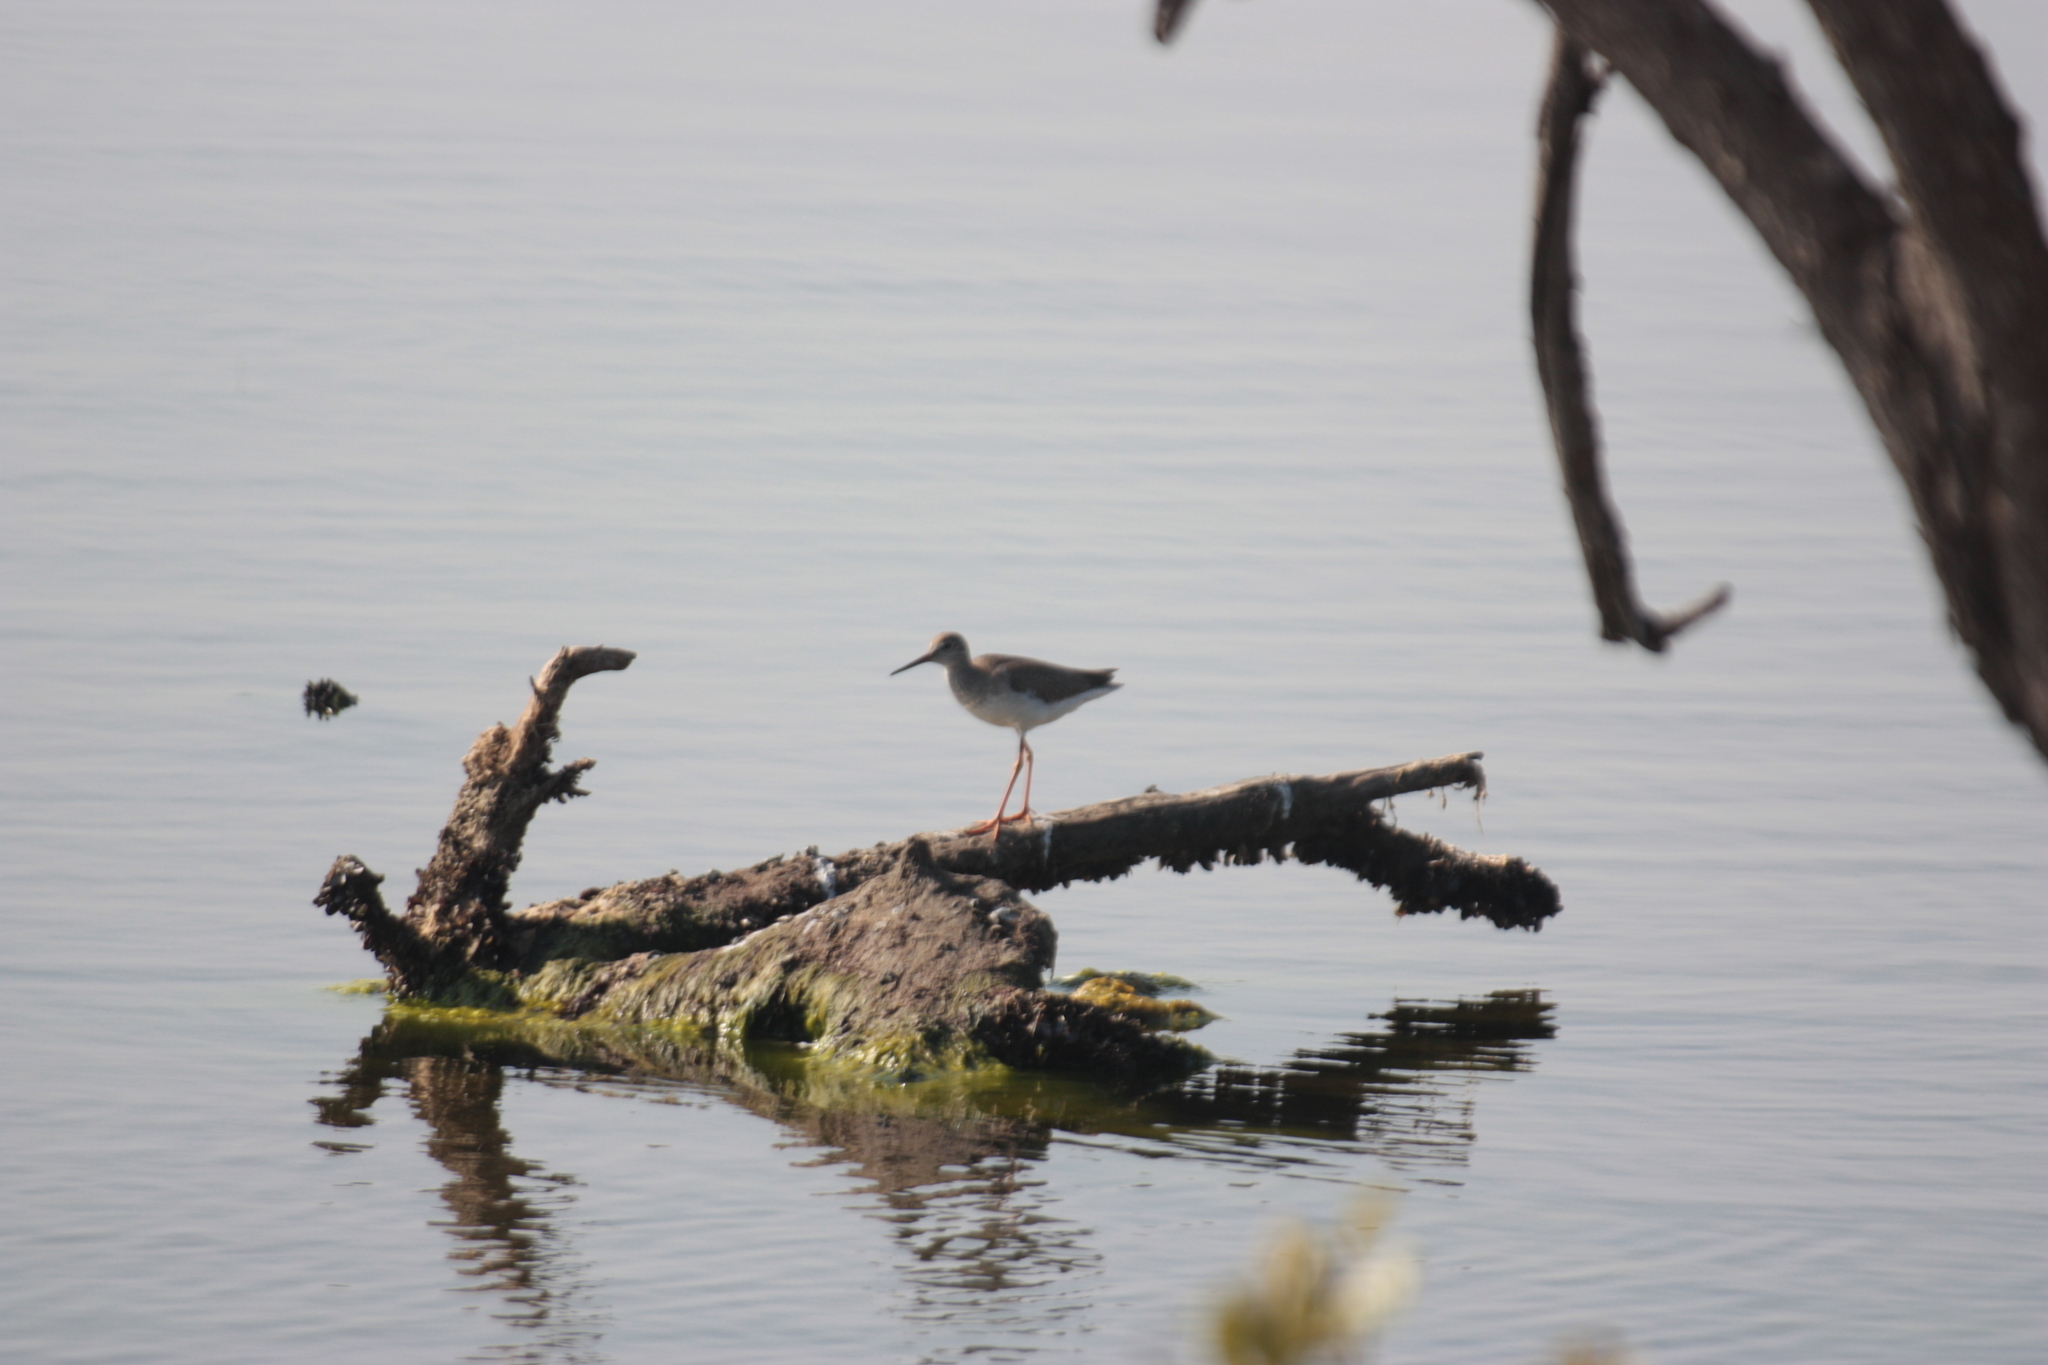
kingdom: Animalia
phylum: Chordata
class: Aves
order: Charadriiformes
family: Scolopacidae
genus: Tringa
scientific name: Tringa totanus
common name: Common redshank
